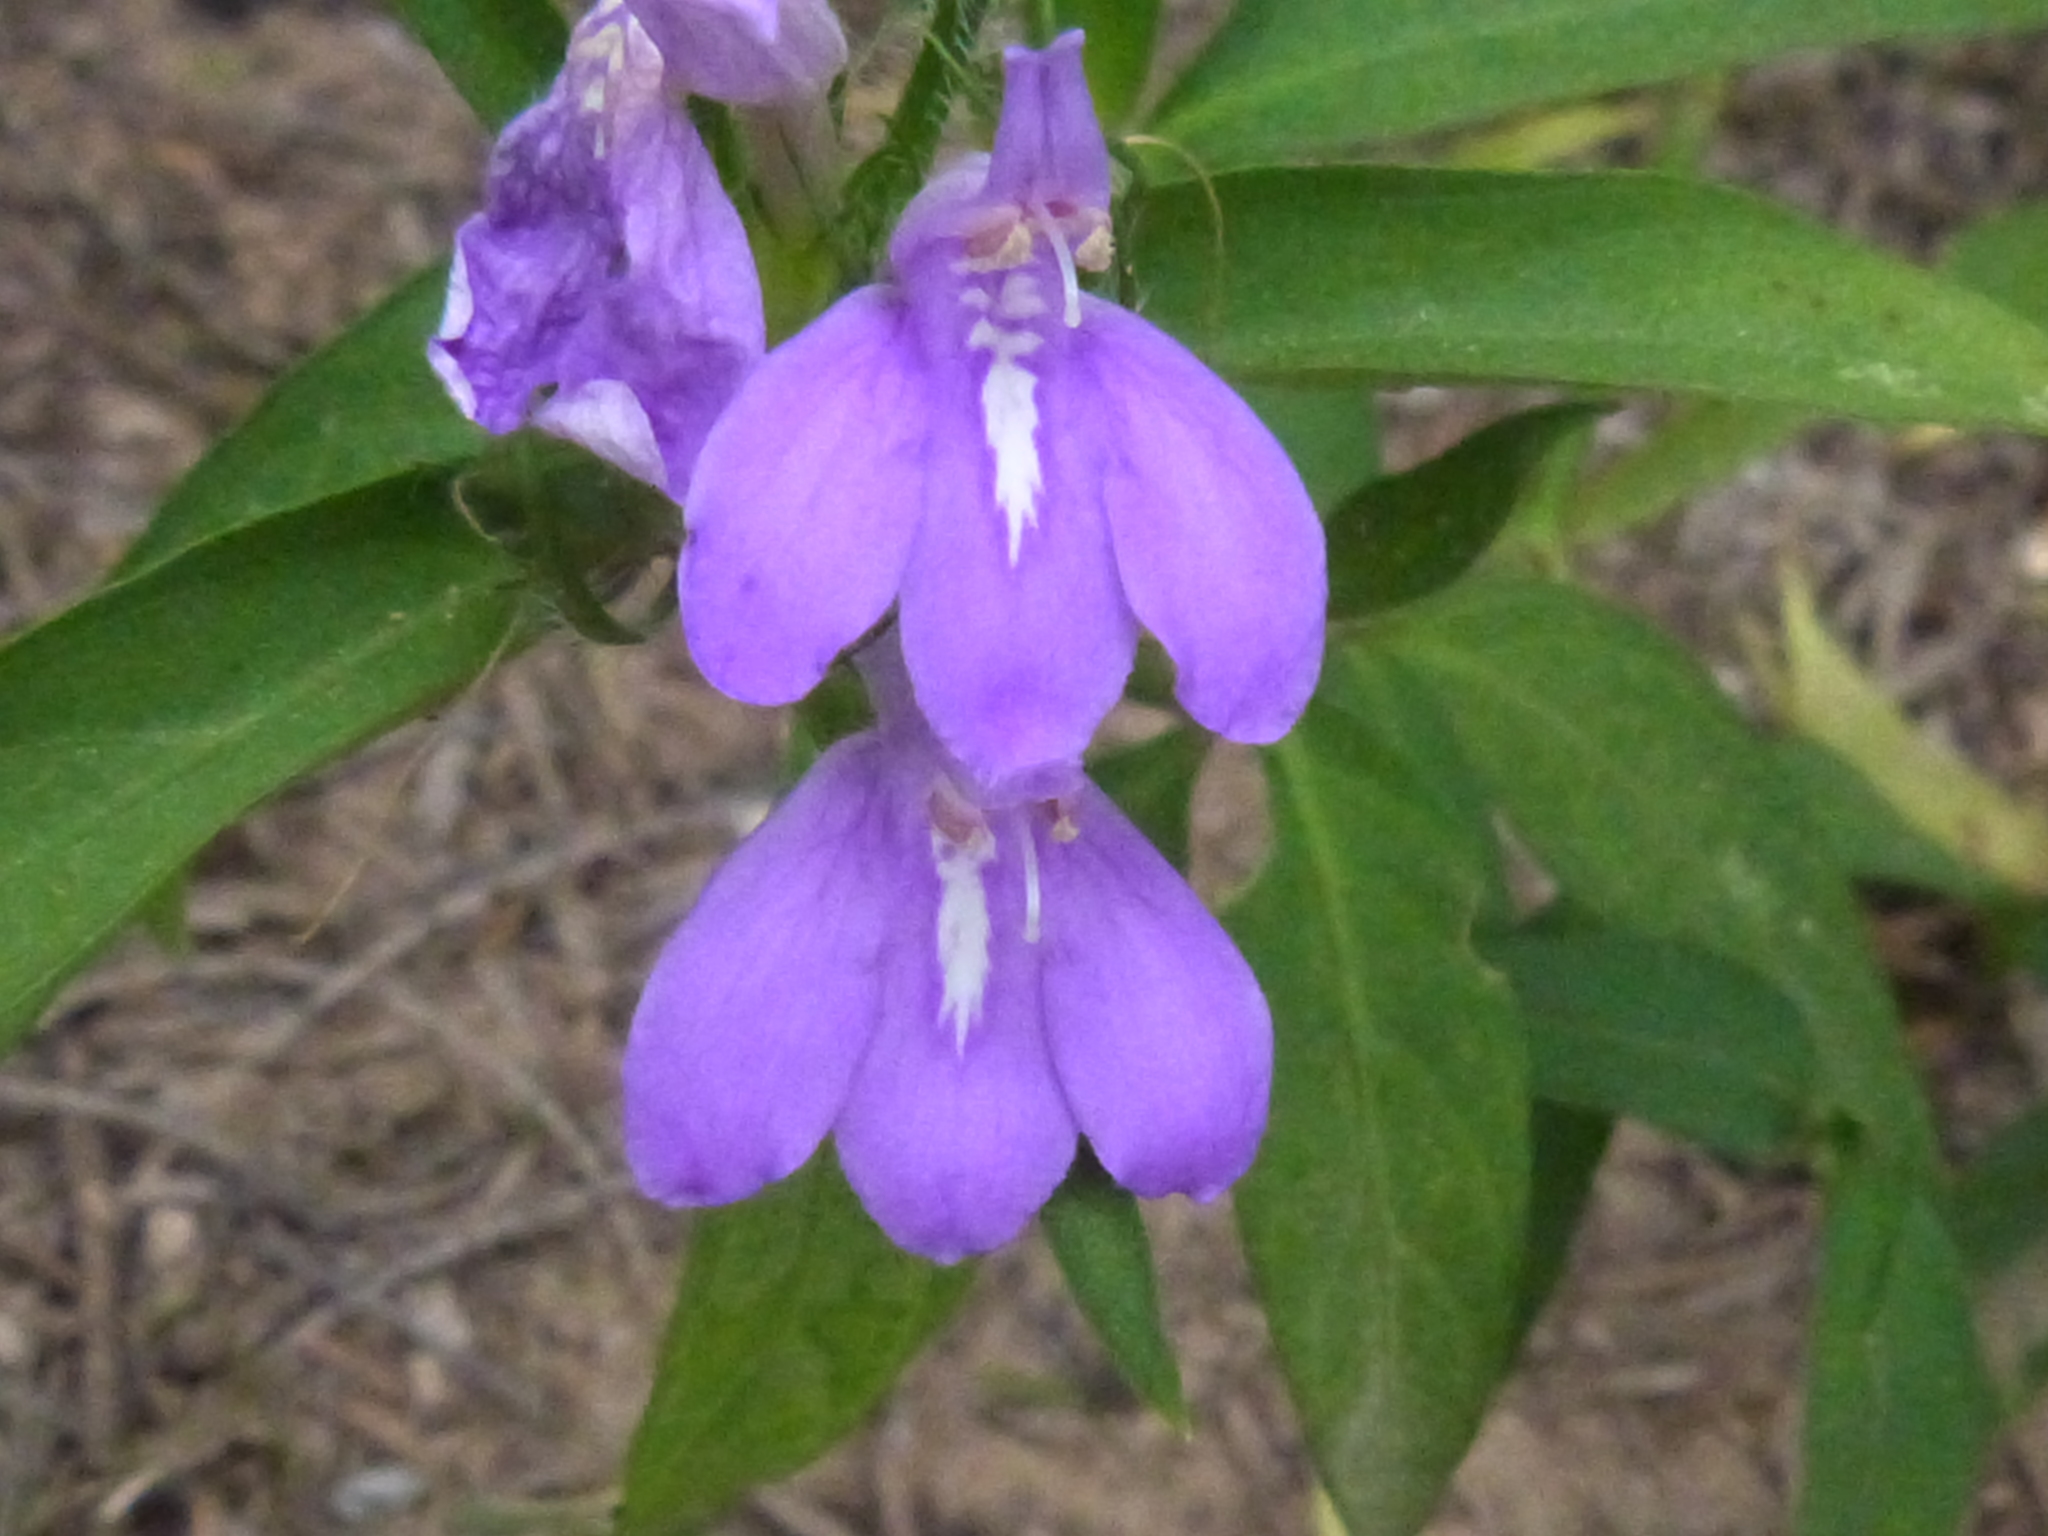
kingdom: Plantae
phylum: Tracheophyta
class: Magnoliopsida
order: Lamiales
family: Acanthaceae
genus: Justicia
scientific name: Justicia squarrosa
